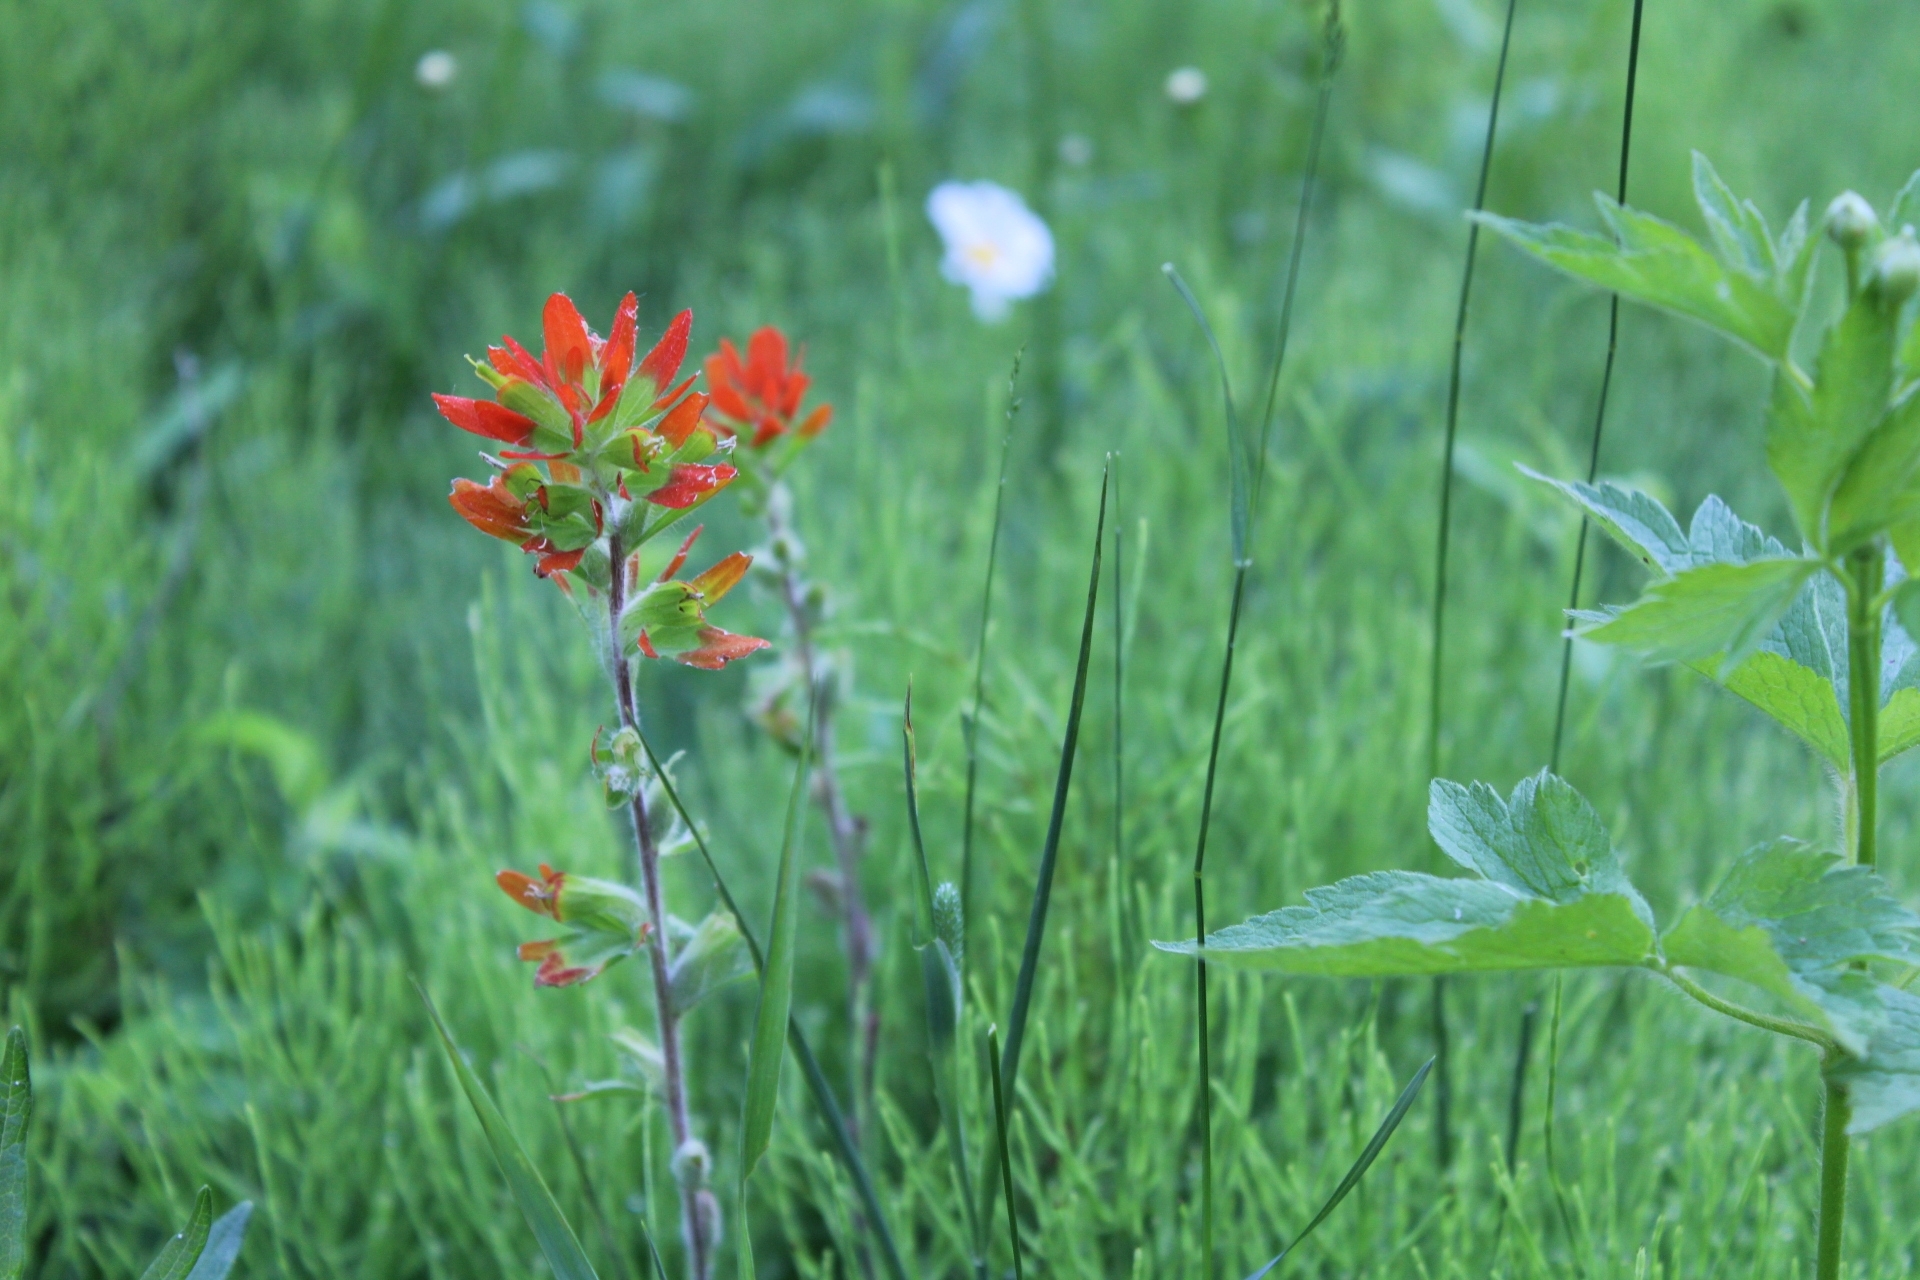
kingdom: Plantae
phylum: Tracheophyta
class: Magnoliopsida
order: Lamiales
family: Orobanchaceae
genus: Castilleja
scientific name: Castilleja coccinea
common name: Scarlet paintbrush
